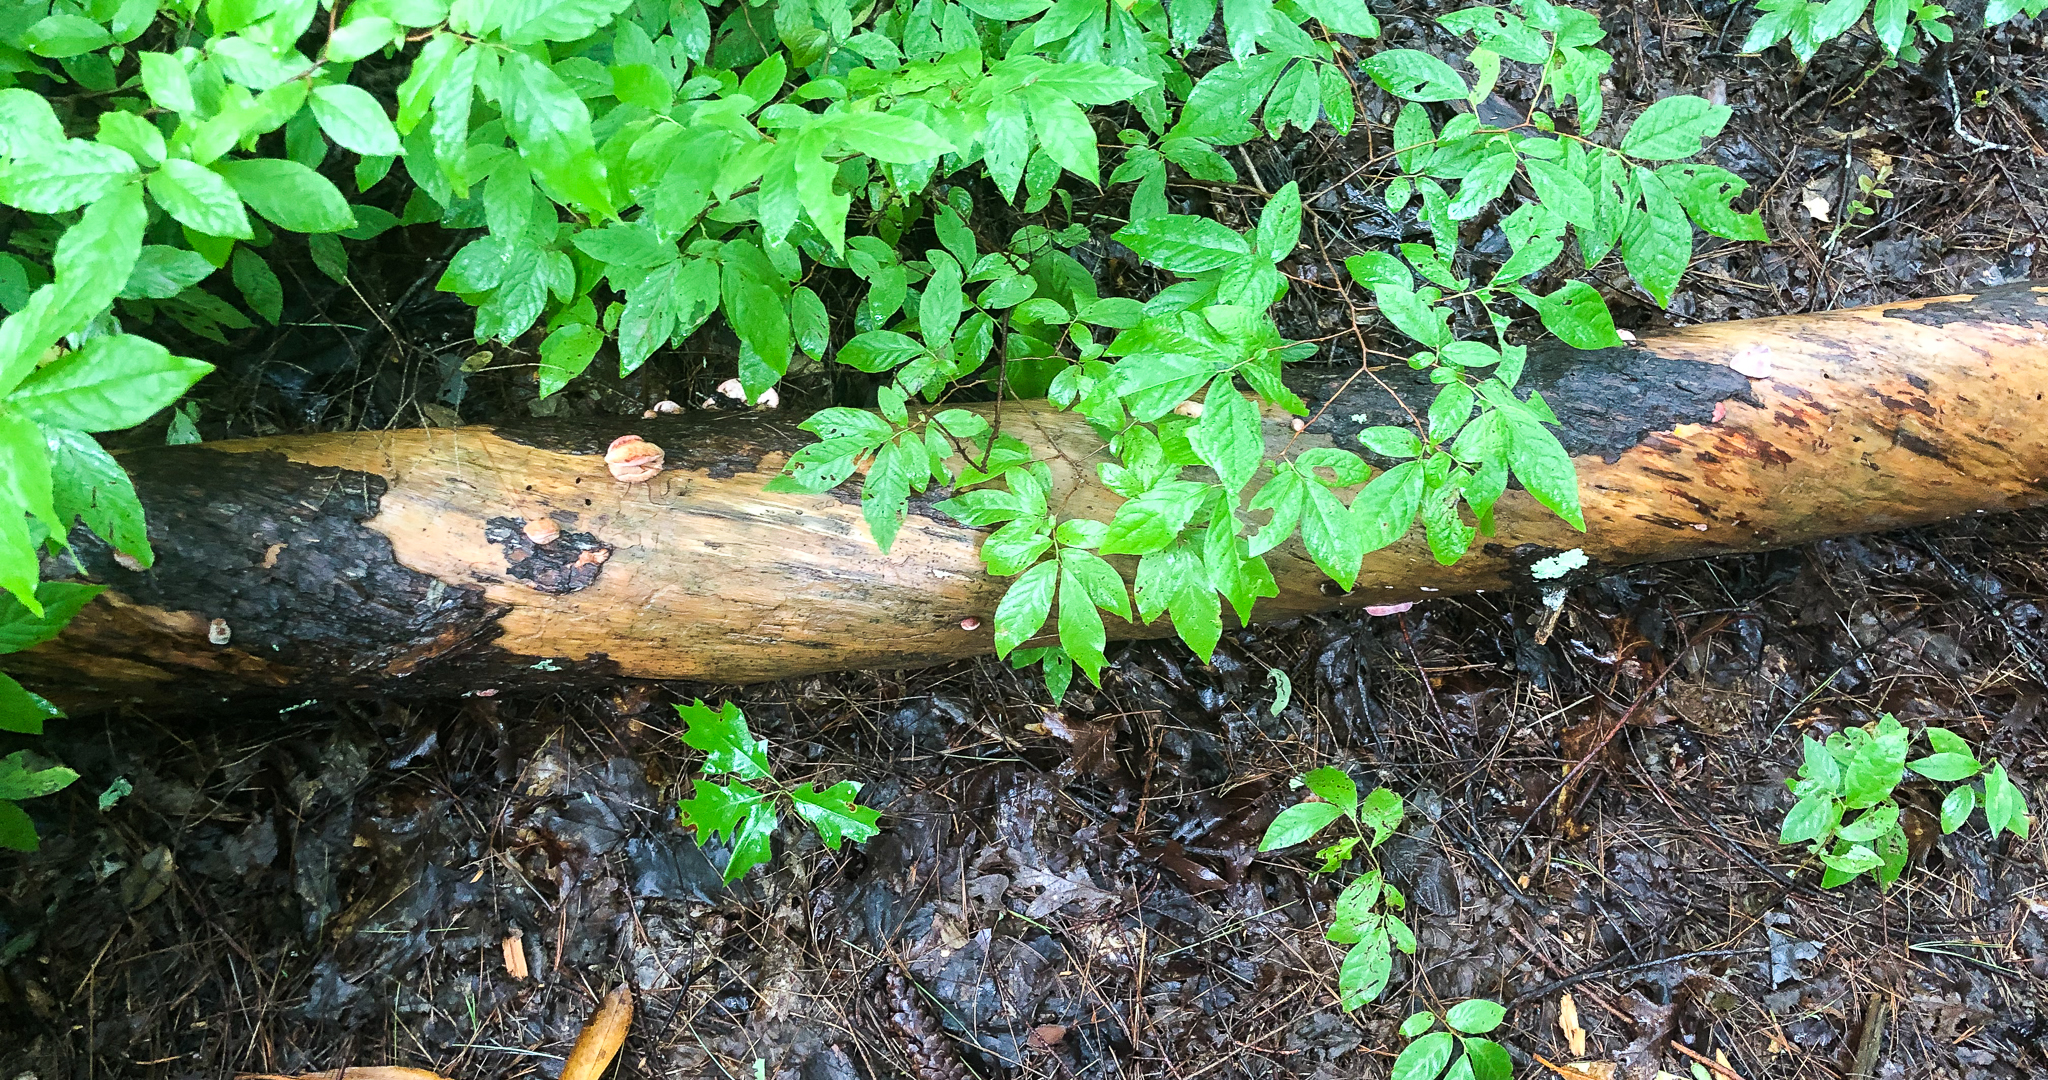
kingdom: Fungi
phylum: Basidiomycota
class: Agaricomycetes
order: Polyporales
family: Fomitopsidaceae
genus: Rhodofomes
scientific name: Rhodofomes cajanderi
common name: Rosy conk
